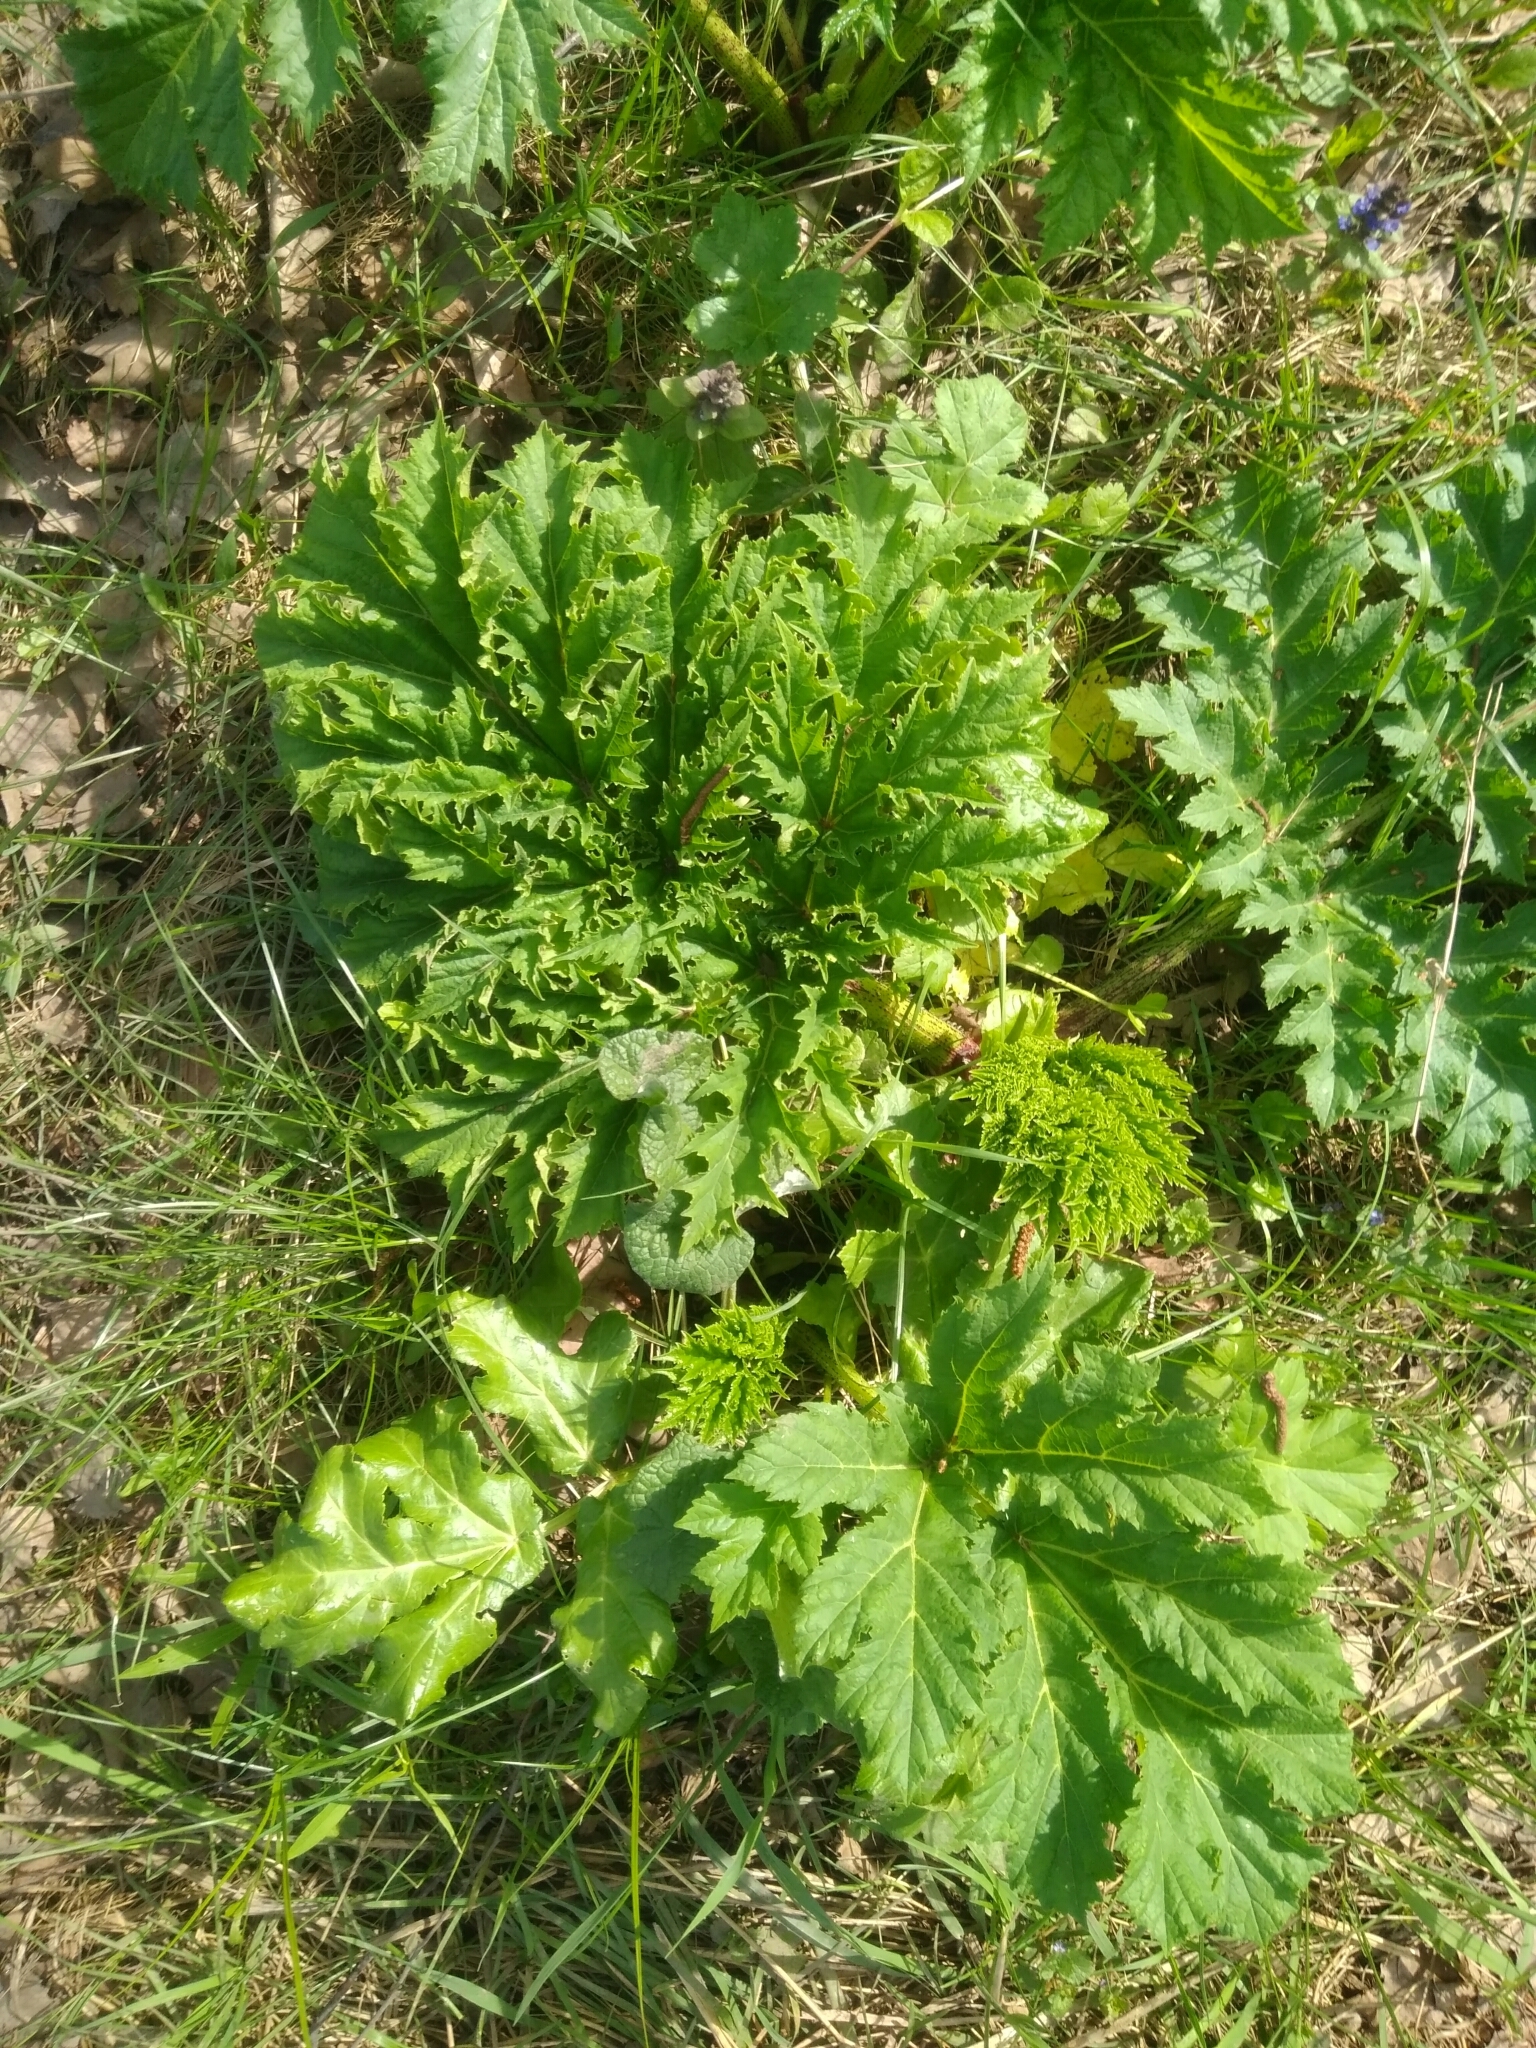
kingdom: Plantae
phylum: Tracheophyta
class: Magnoliopsida
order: Apiales
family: Apiaceae
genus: Heracleum
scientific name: Heracleum sosnowskyi
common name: Sosnowsky's hogweed
